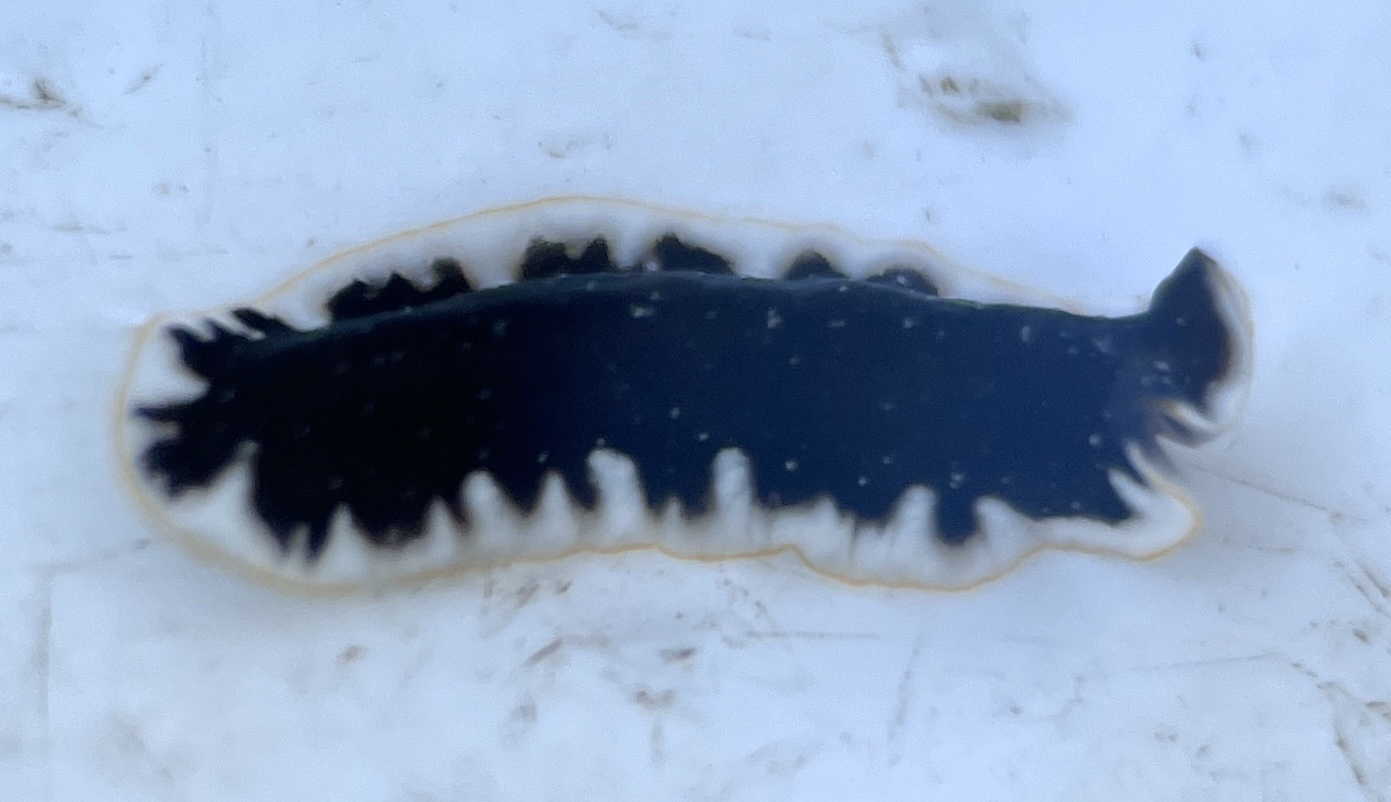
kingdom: Animalia
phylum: Platyhelminthes
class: Turbellaria
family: Pseudocerotidae
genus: Pseudoceros
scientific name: Pseudoceros bicolor
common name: Bicolored flatworm
